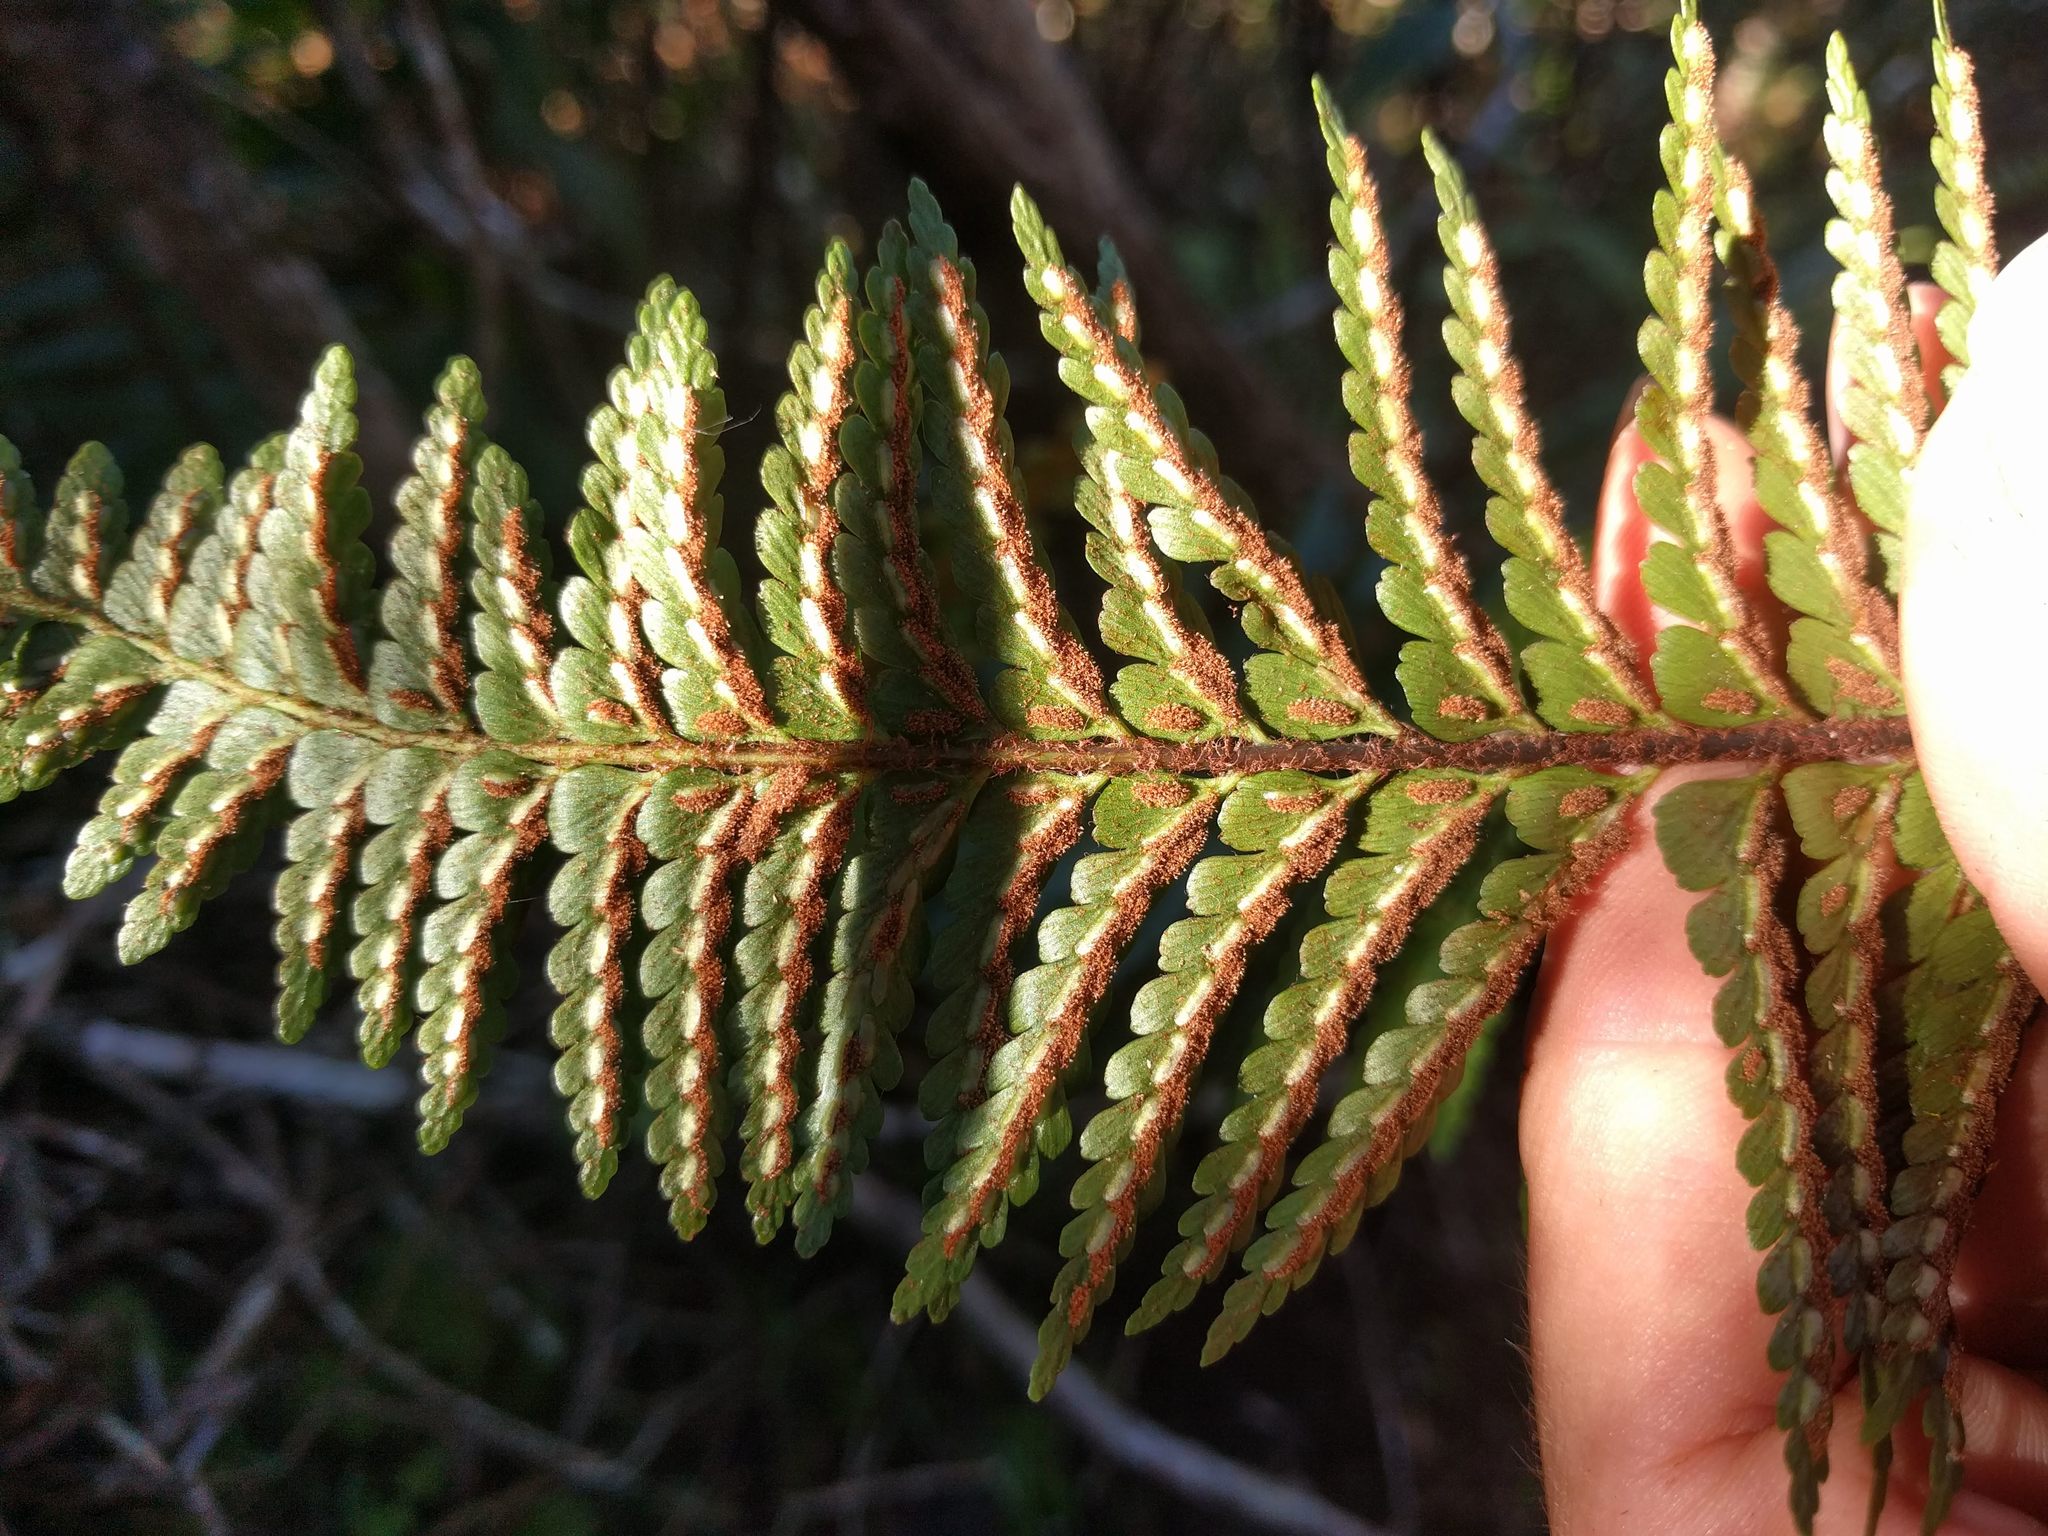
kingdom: Plantae
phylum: Tracheophyta
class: Polypodiopsida
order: Polypodiales
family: Aspleniaceae
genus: Asplenium
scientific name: Asplenium horridum
